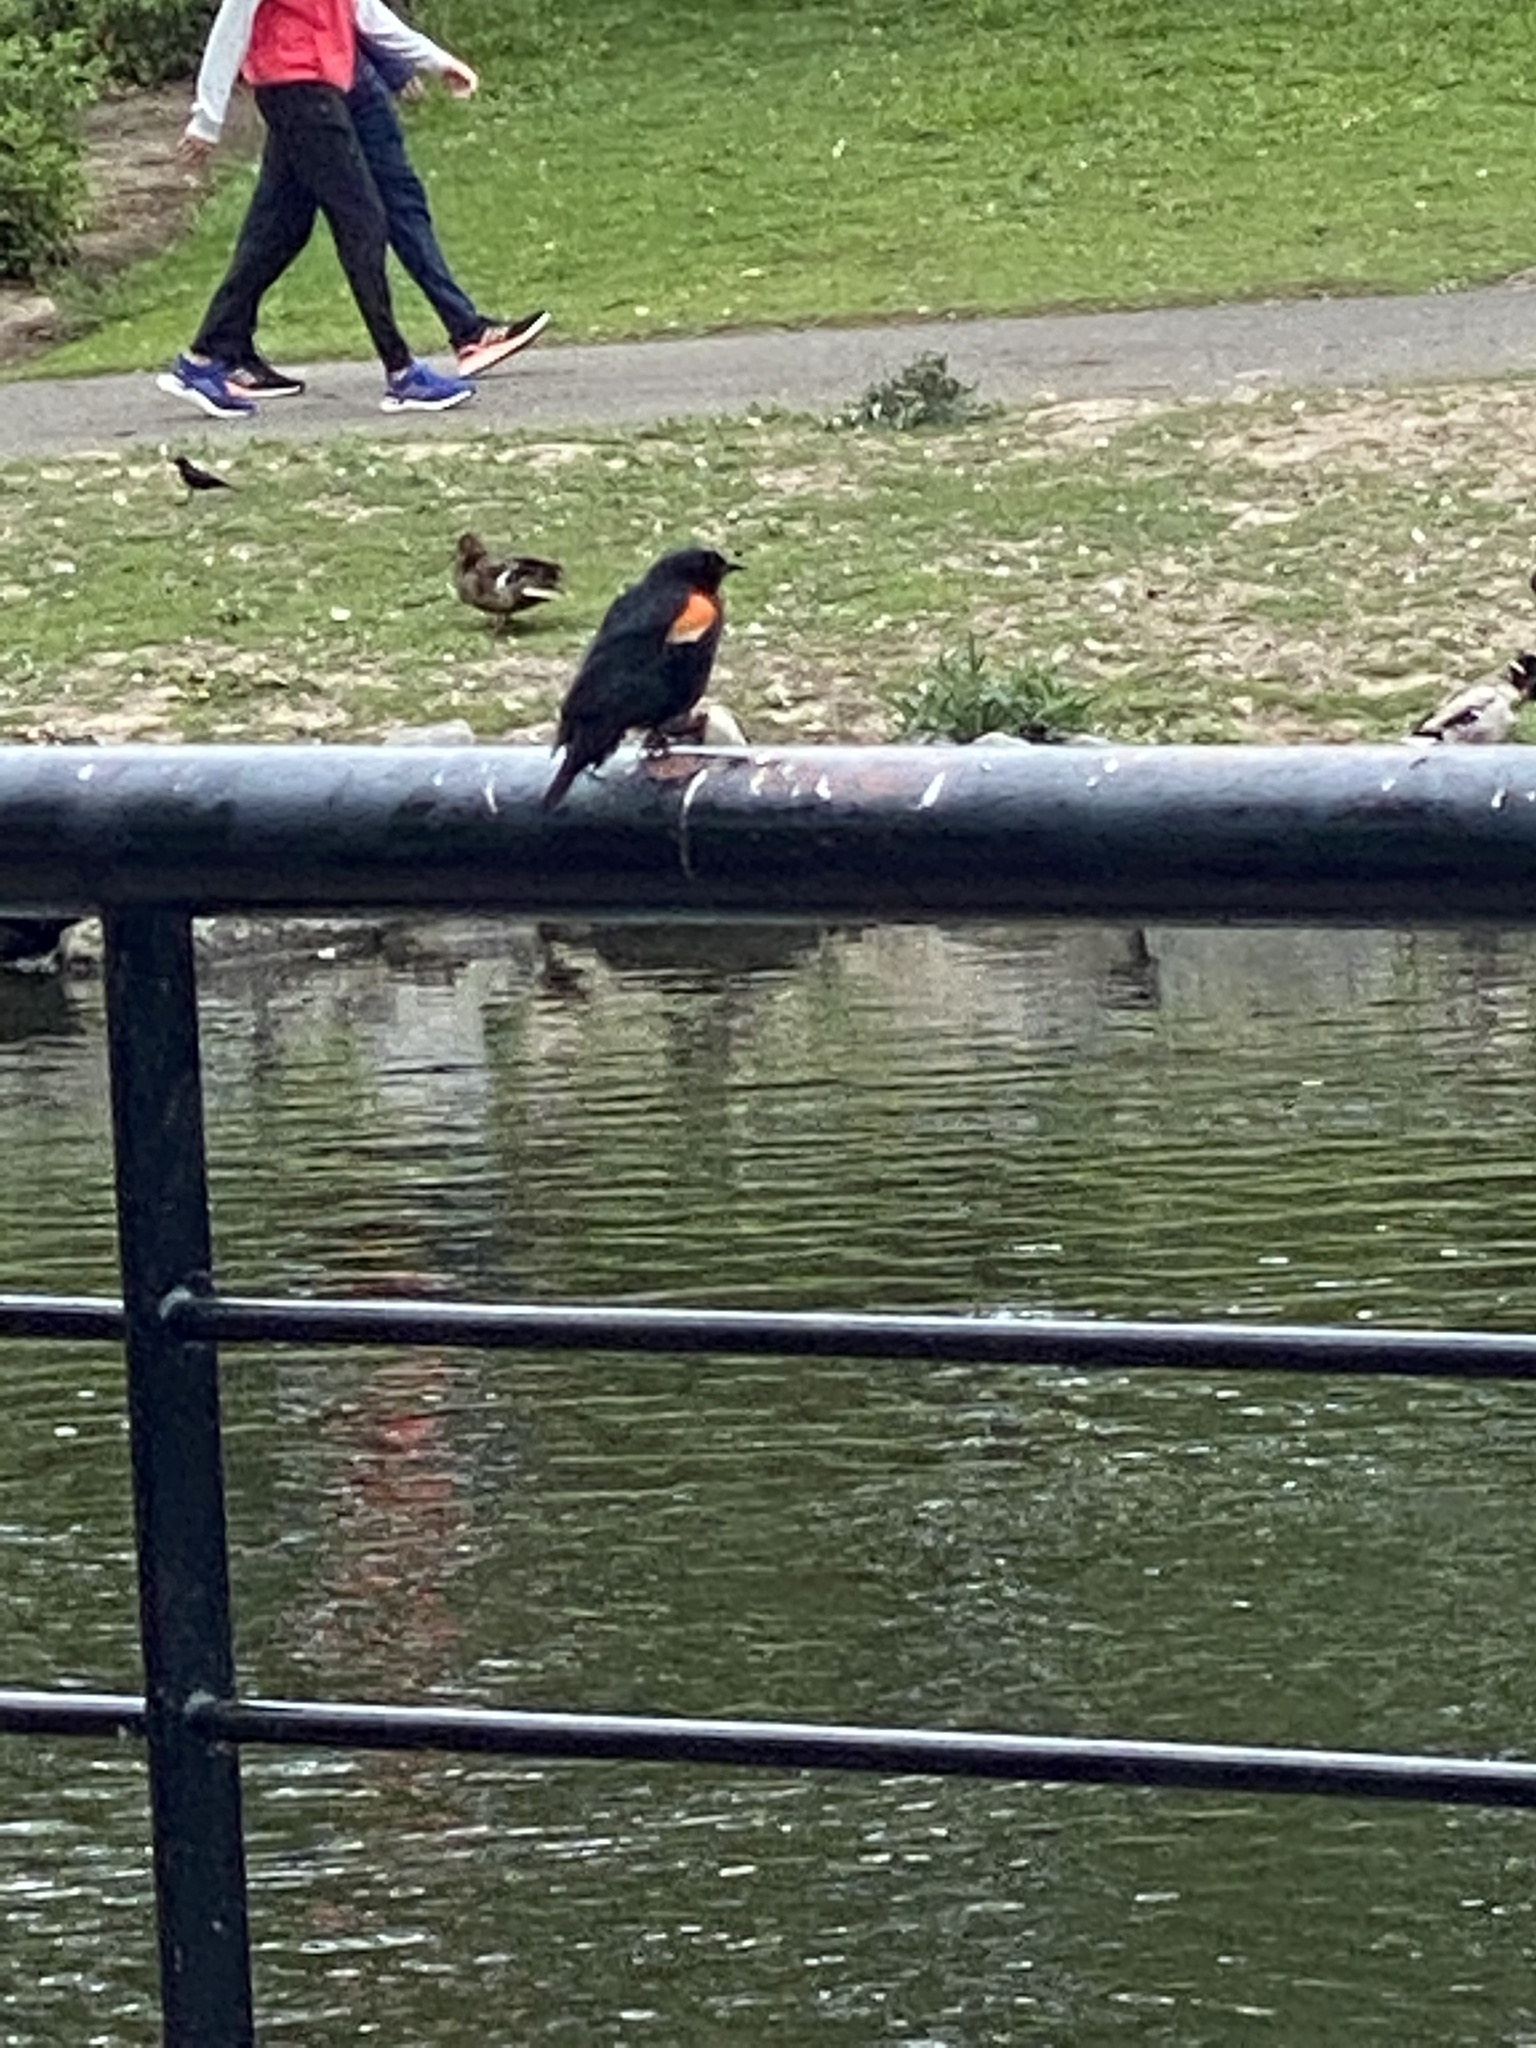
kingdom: Animalia
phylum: Chordata
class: Aves
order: Passeriformes
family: Icteridae
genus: Agelaius
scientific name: Agelaius phoeniceus
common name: Red-winged blackbird
